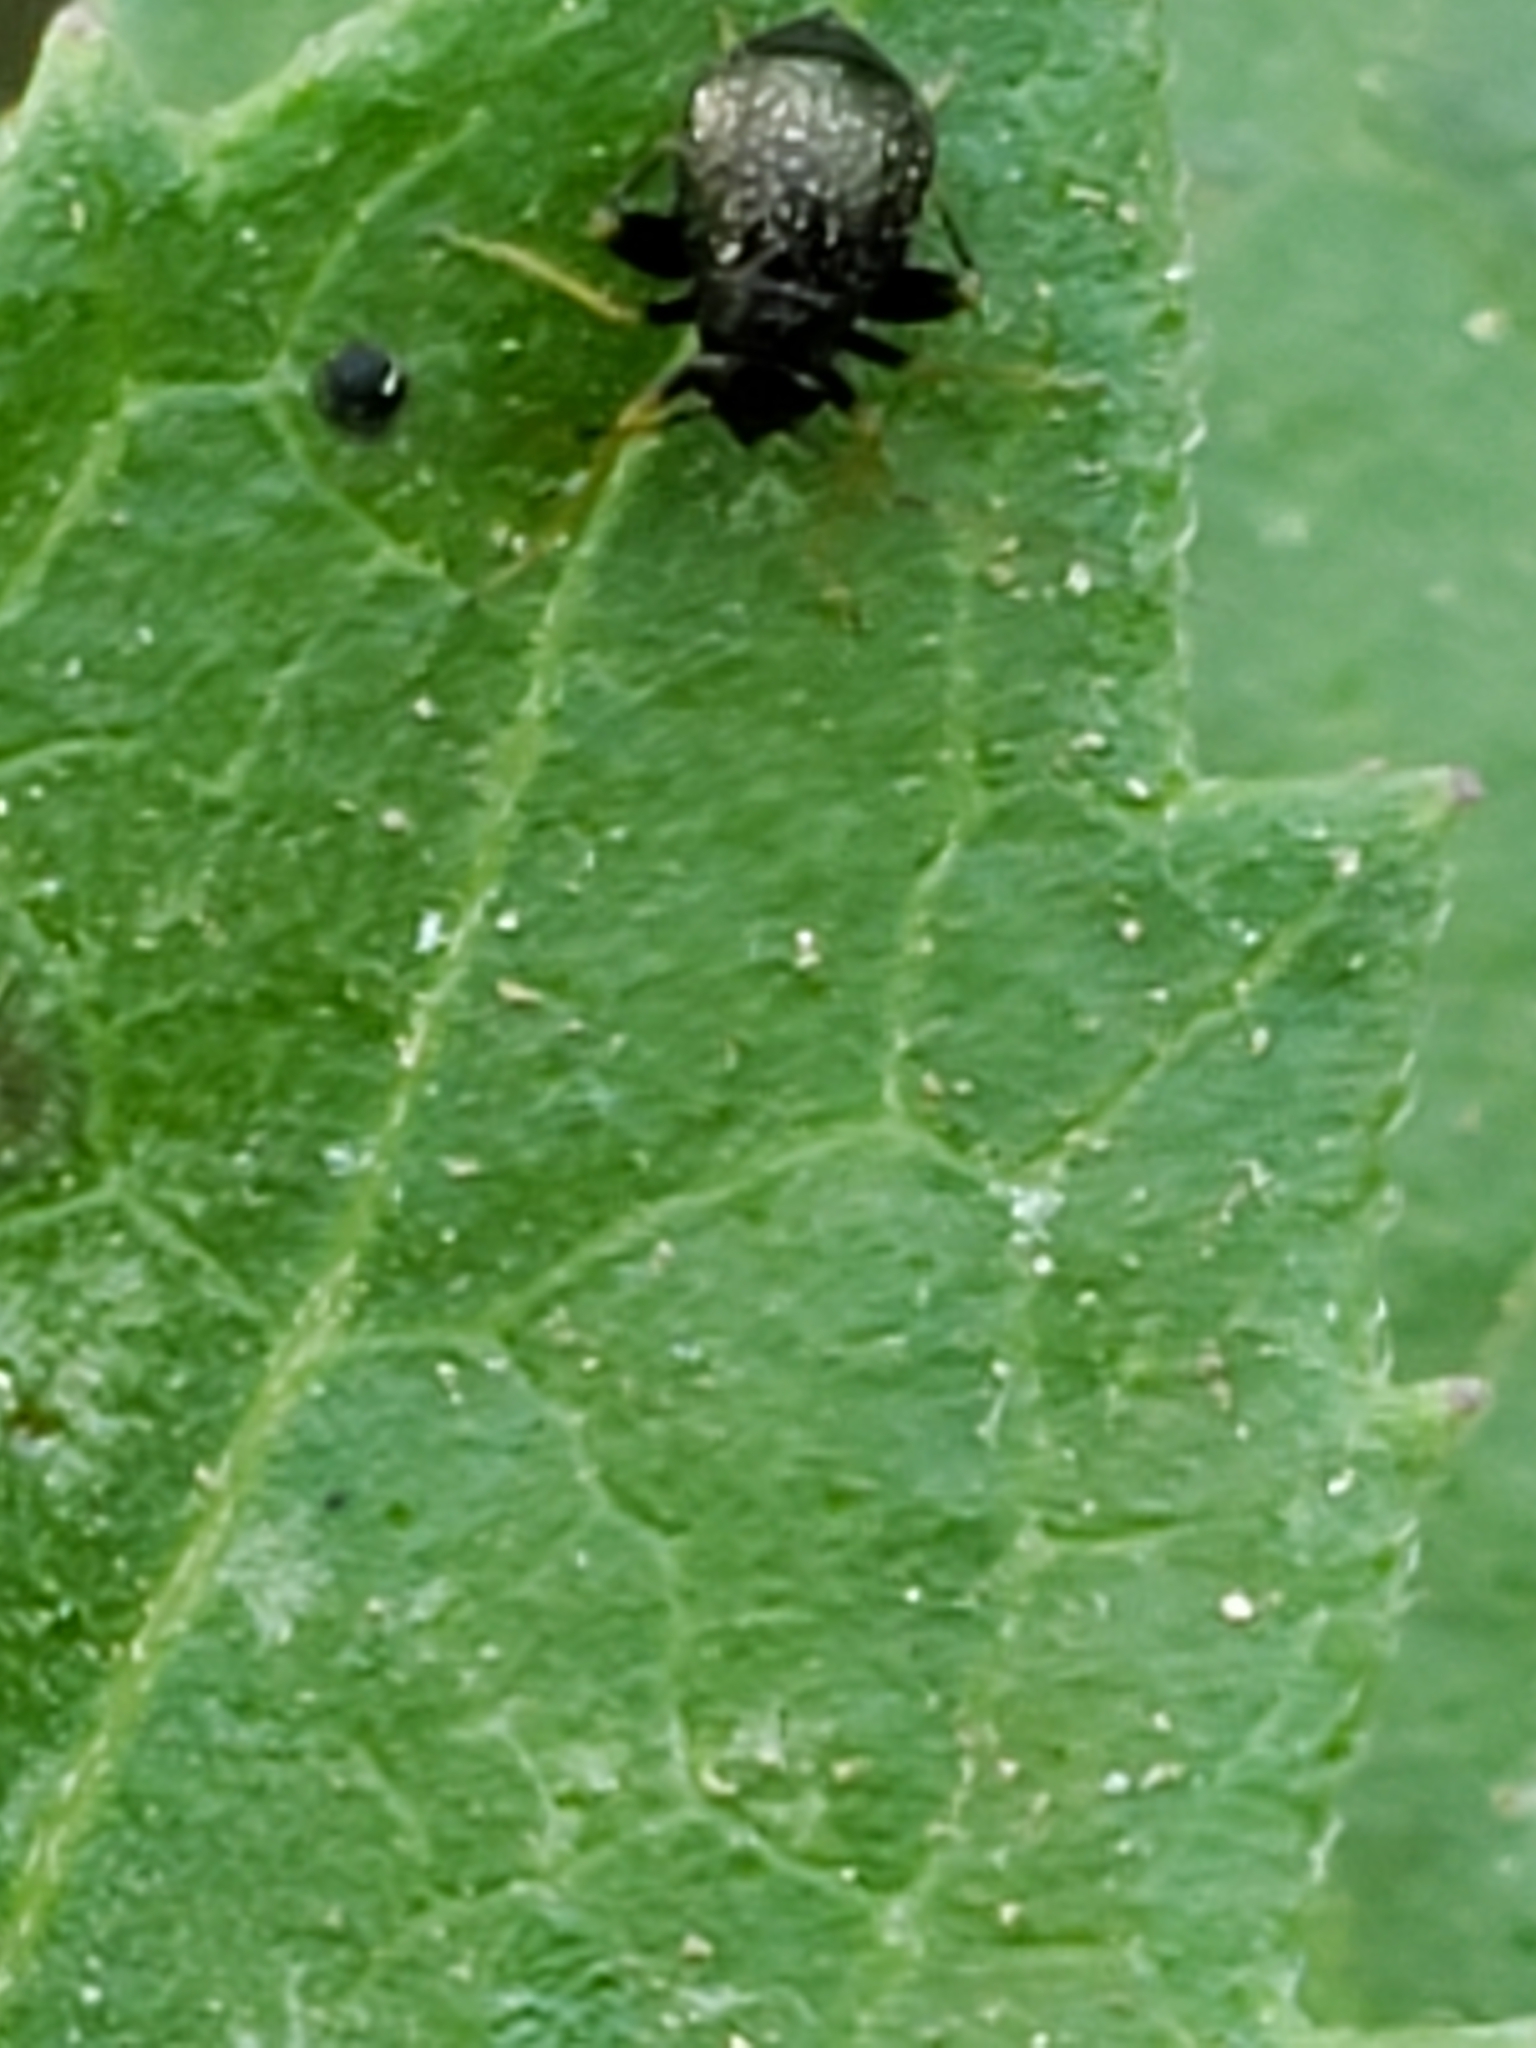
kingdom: Animalia
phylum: Arthropoda
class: Insecta
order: Hemiptera
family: Miridae
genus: Microtechnites
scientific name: Microtechnites bractatus
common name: Garden fleahopper
